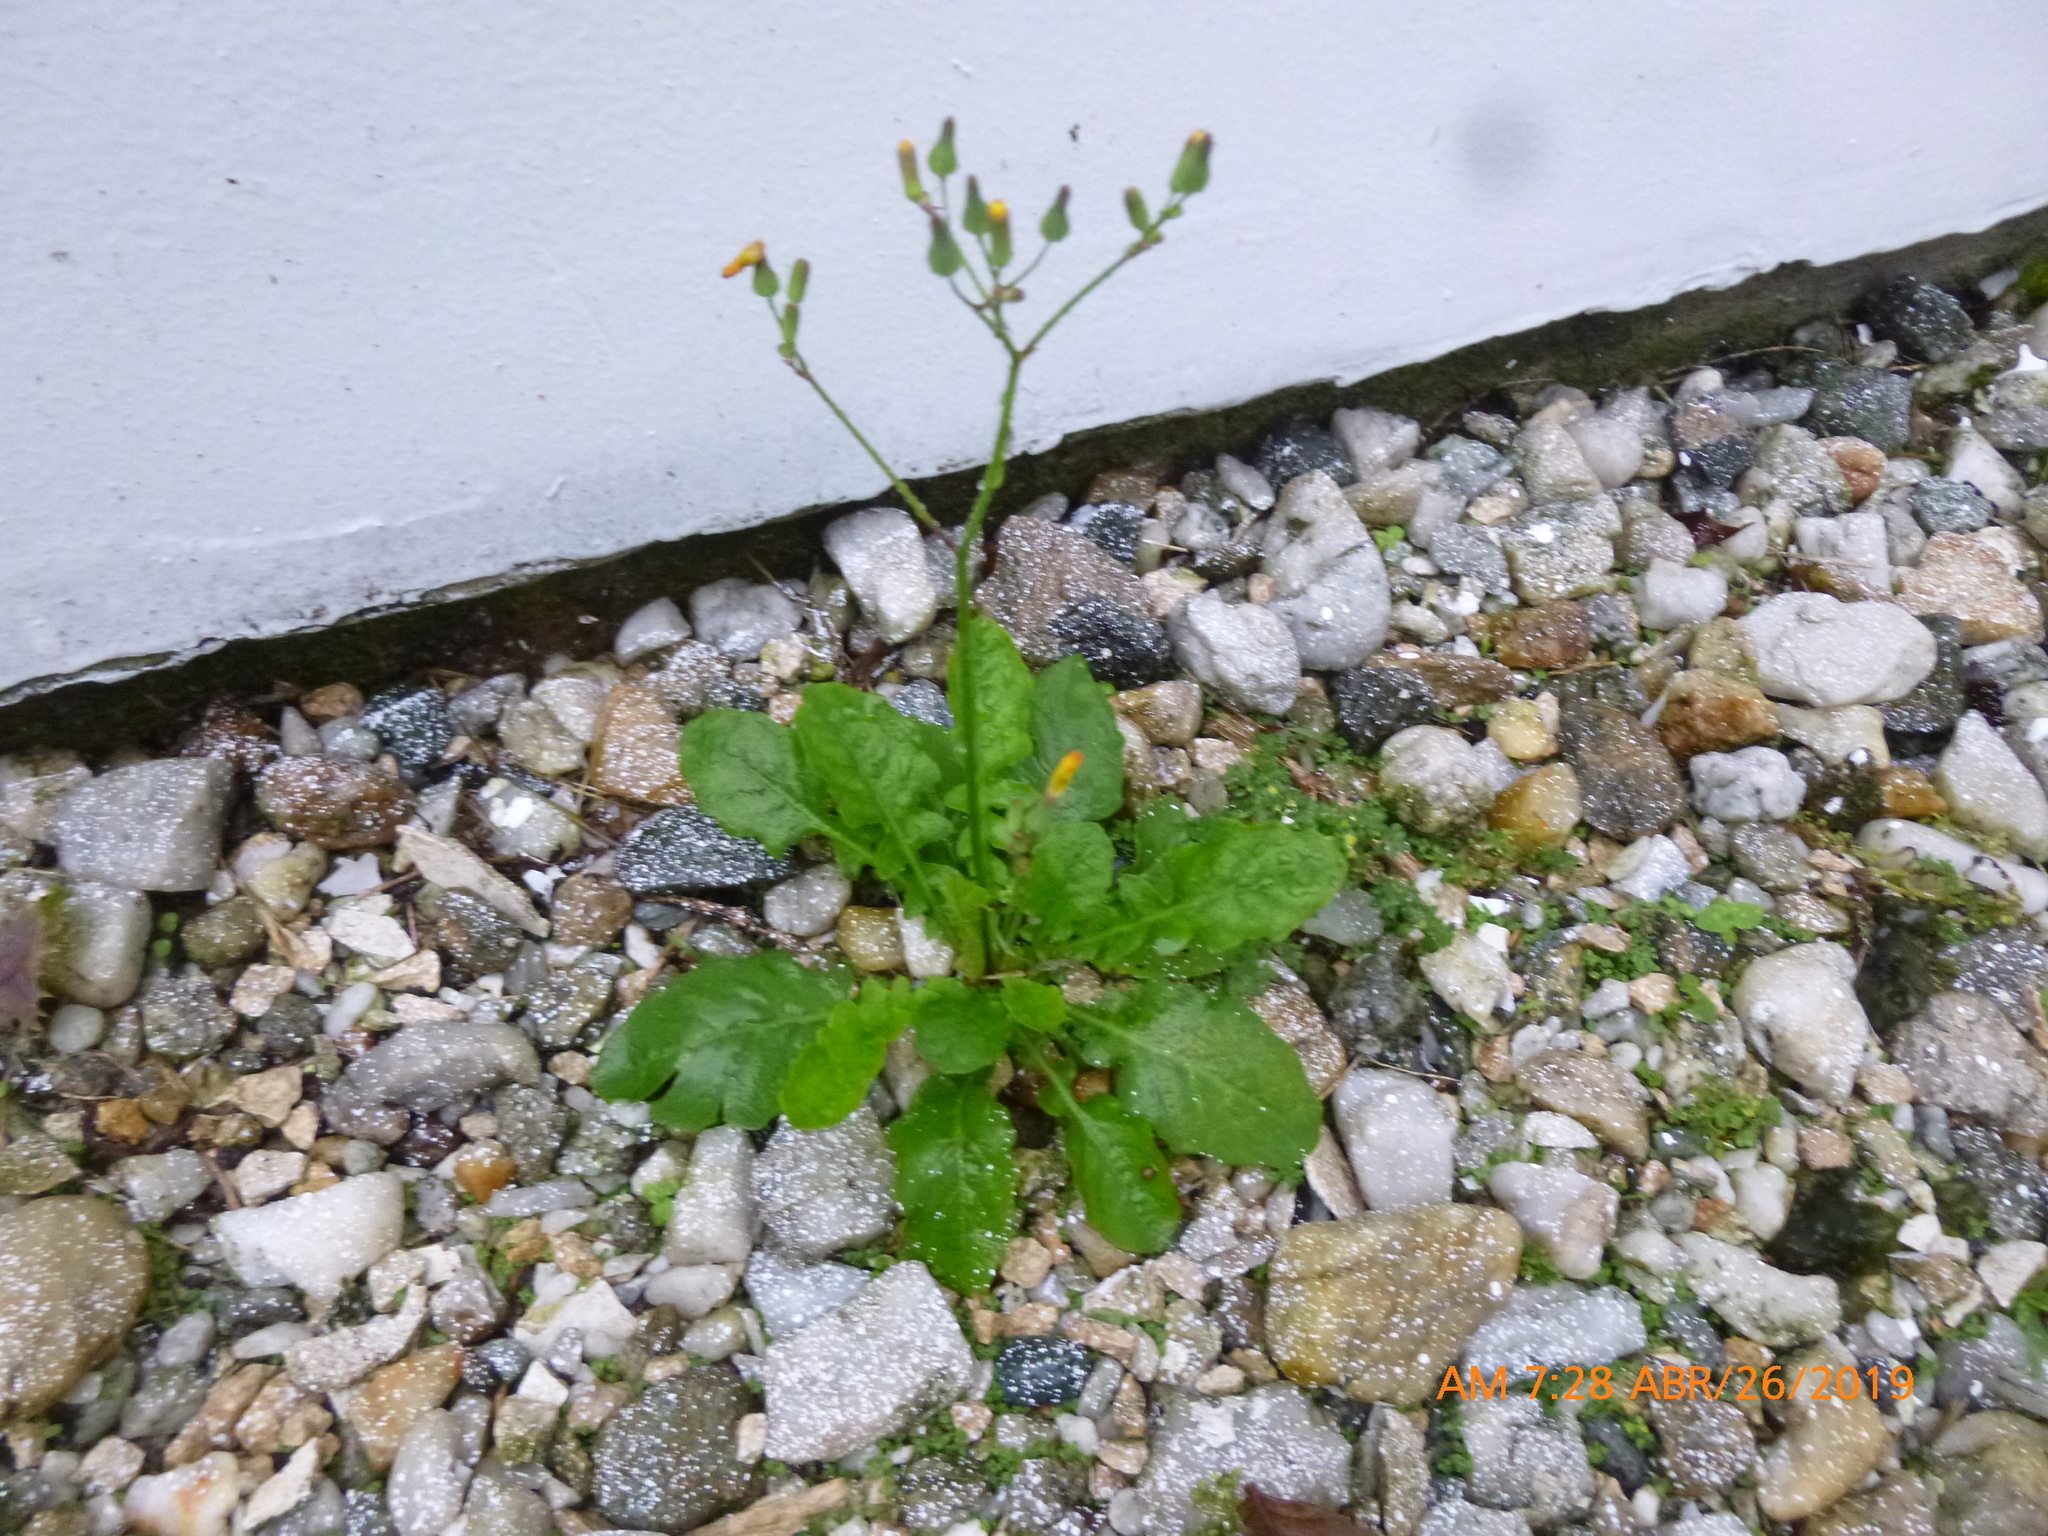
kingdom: Plantae
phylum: Tracheophyta
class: Magnoliopsida
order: Asterales
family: Asteraceae
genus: Youngia
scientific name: Youngia japonica
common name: Oriental false hawksbeard
